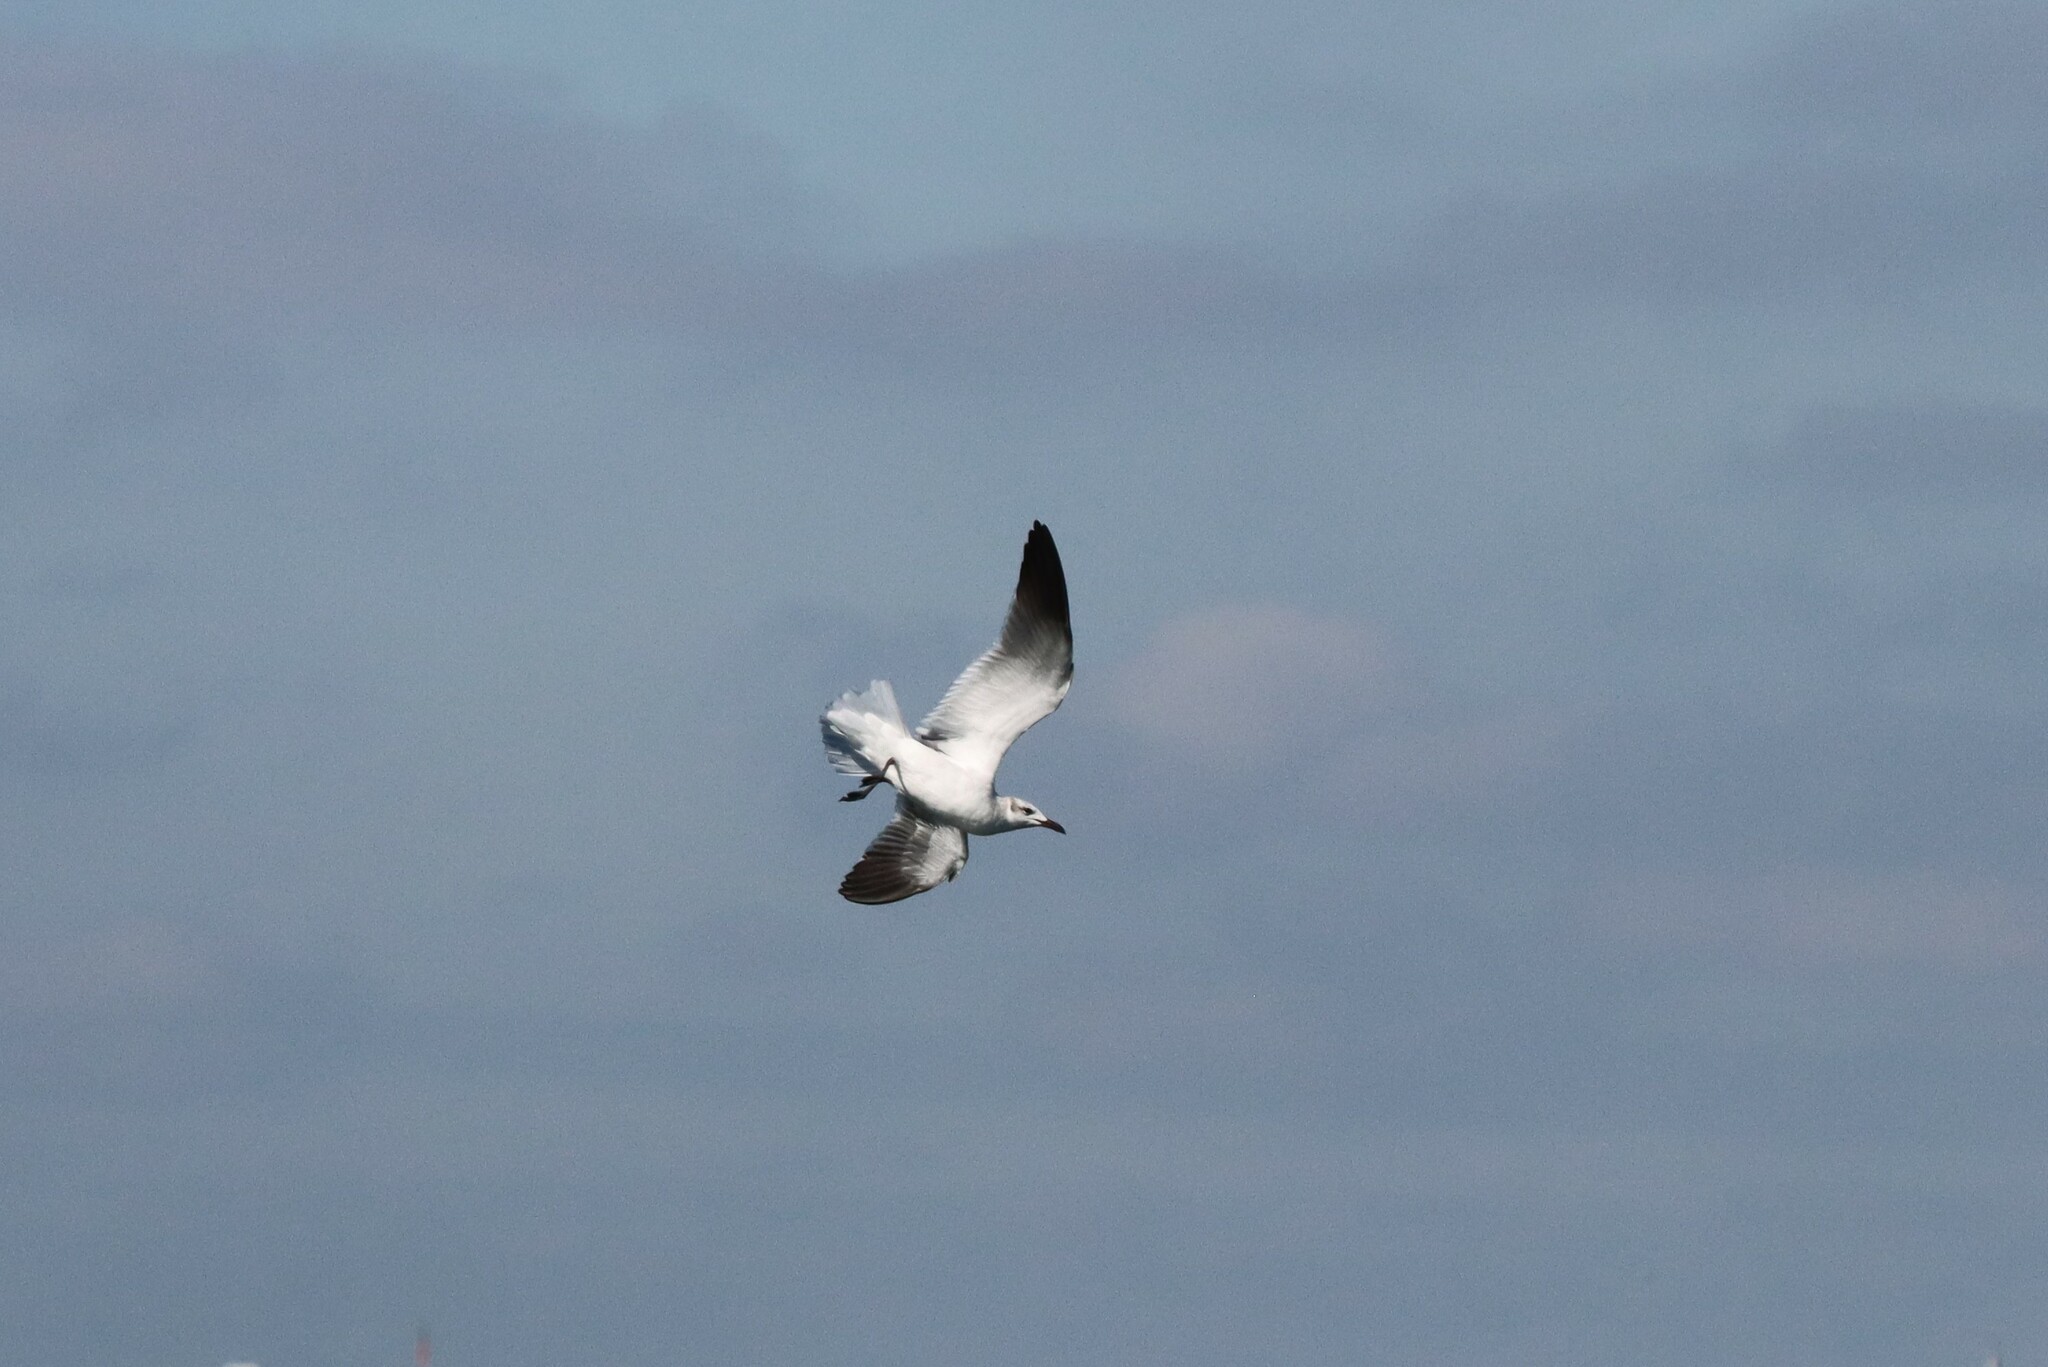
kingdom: Animalia
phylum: Chordata
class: Aves
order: Charadriiformes
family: Laridae
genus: Leucophaeus
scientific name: Leucophaeus atricilla
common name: Laughing gull
